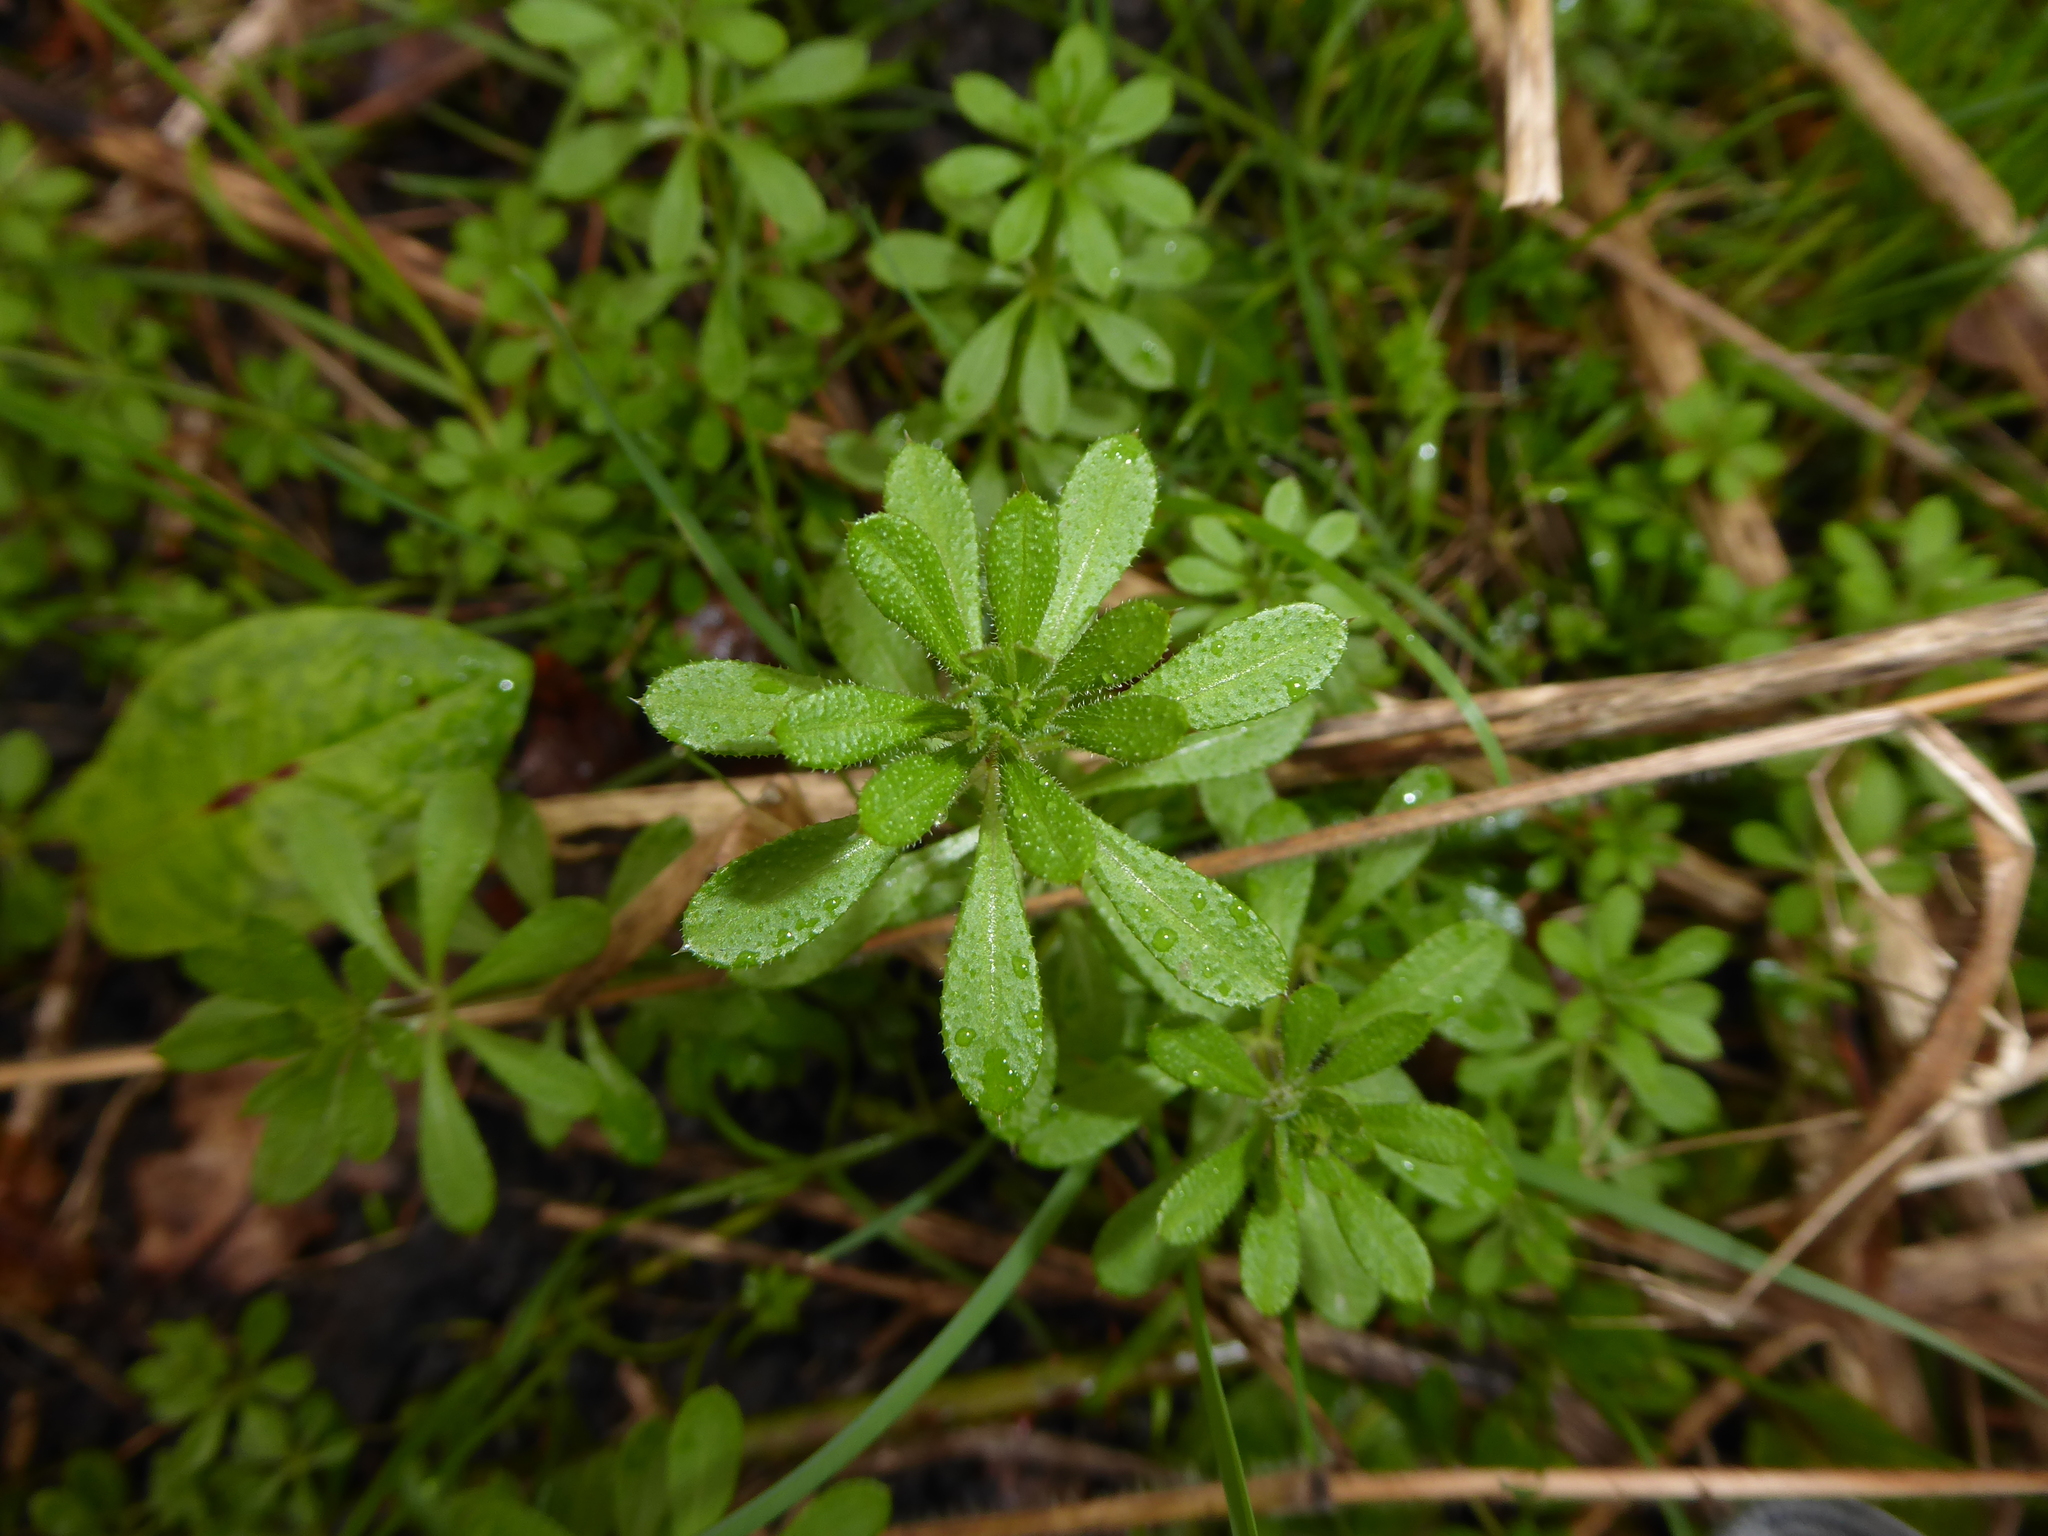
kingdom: Plantae
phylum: Tracheophyta
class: Magnoliopsida
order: Gentianales
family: Rubiaceae
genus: Galium
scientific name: Galium aparine
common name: Cleavers
